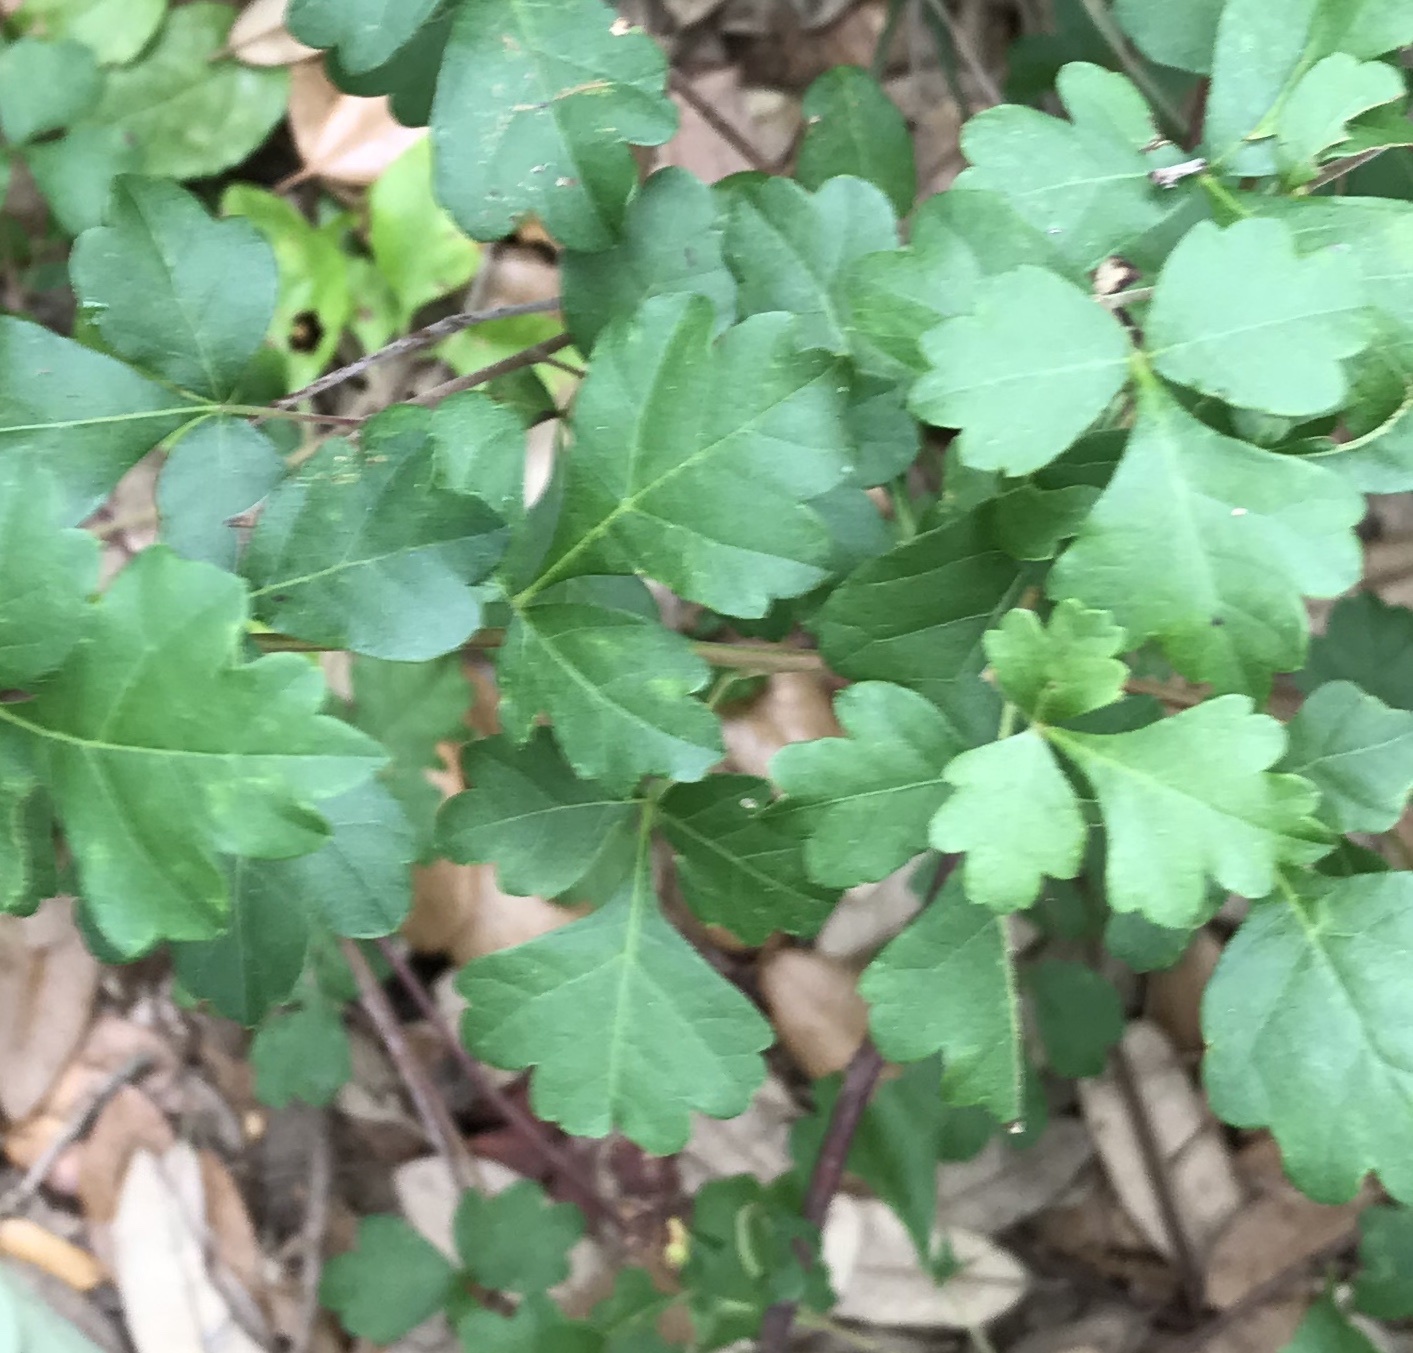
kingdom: Plantae
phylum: Tracheophyta
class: Magnoliopsida
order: Sapindales
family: Anacardiaceae
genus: Rhus
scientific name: Rhus aromatica
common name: Aromatic sumac
